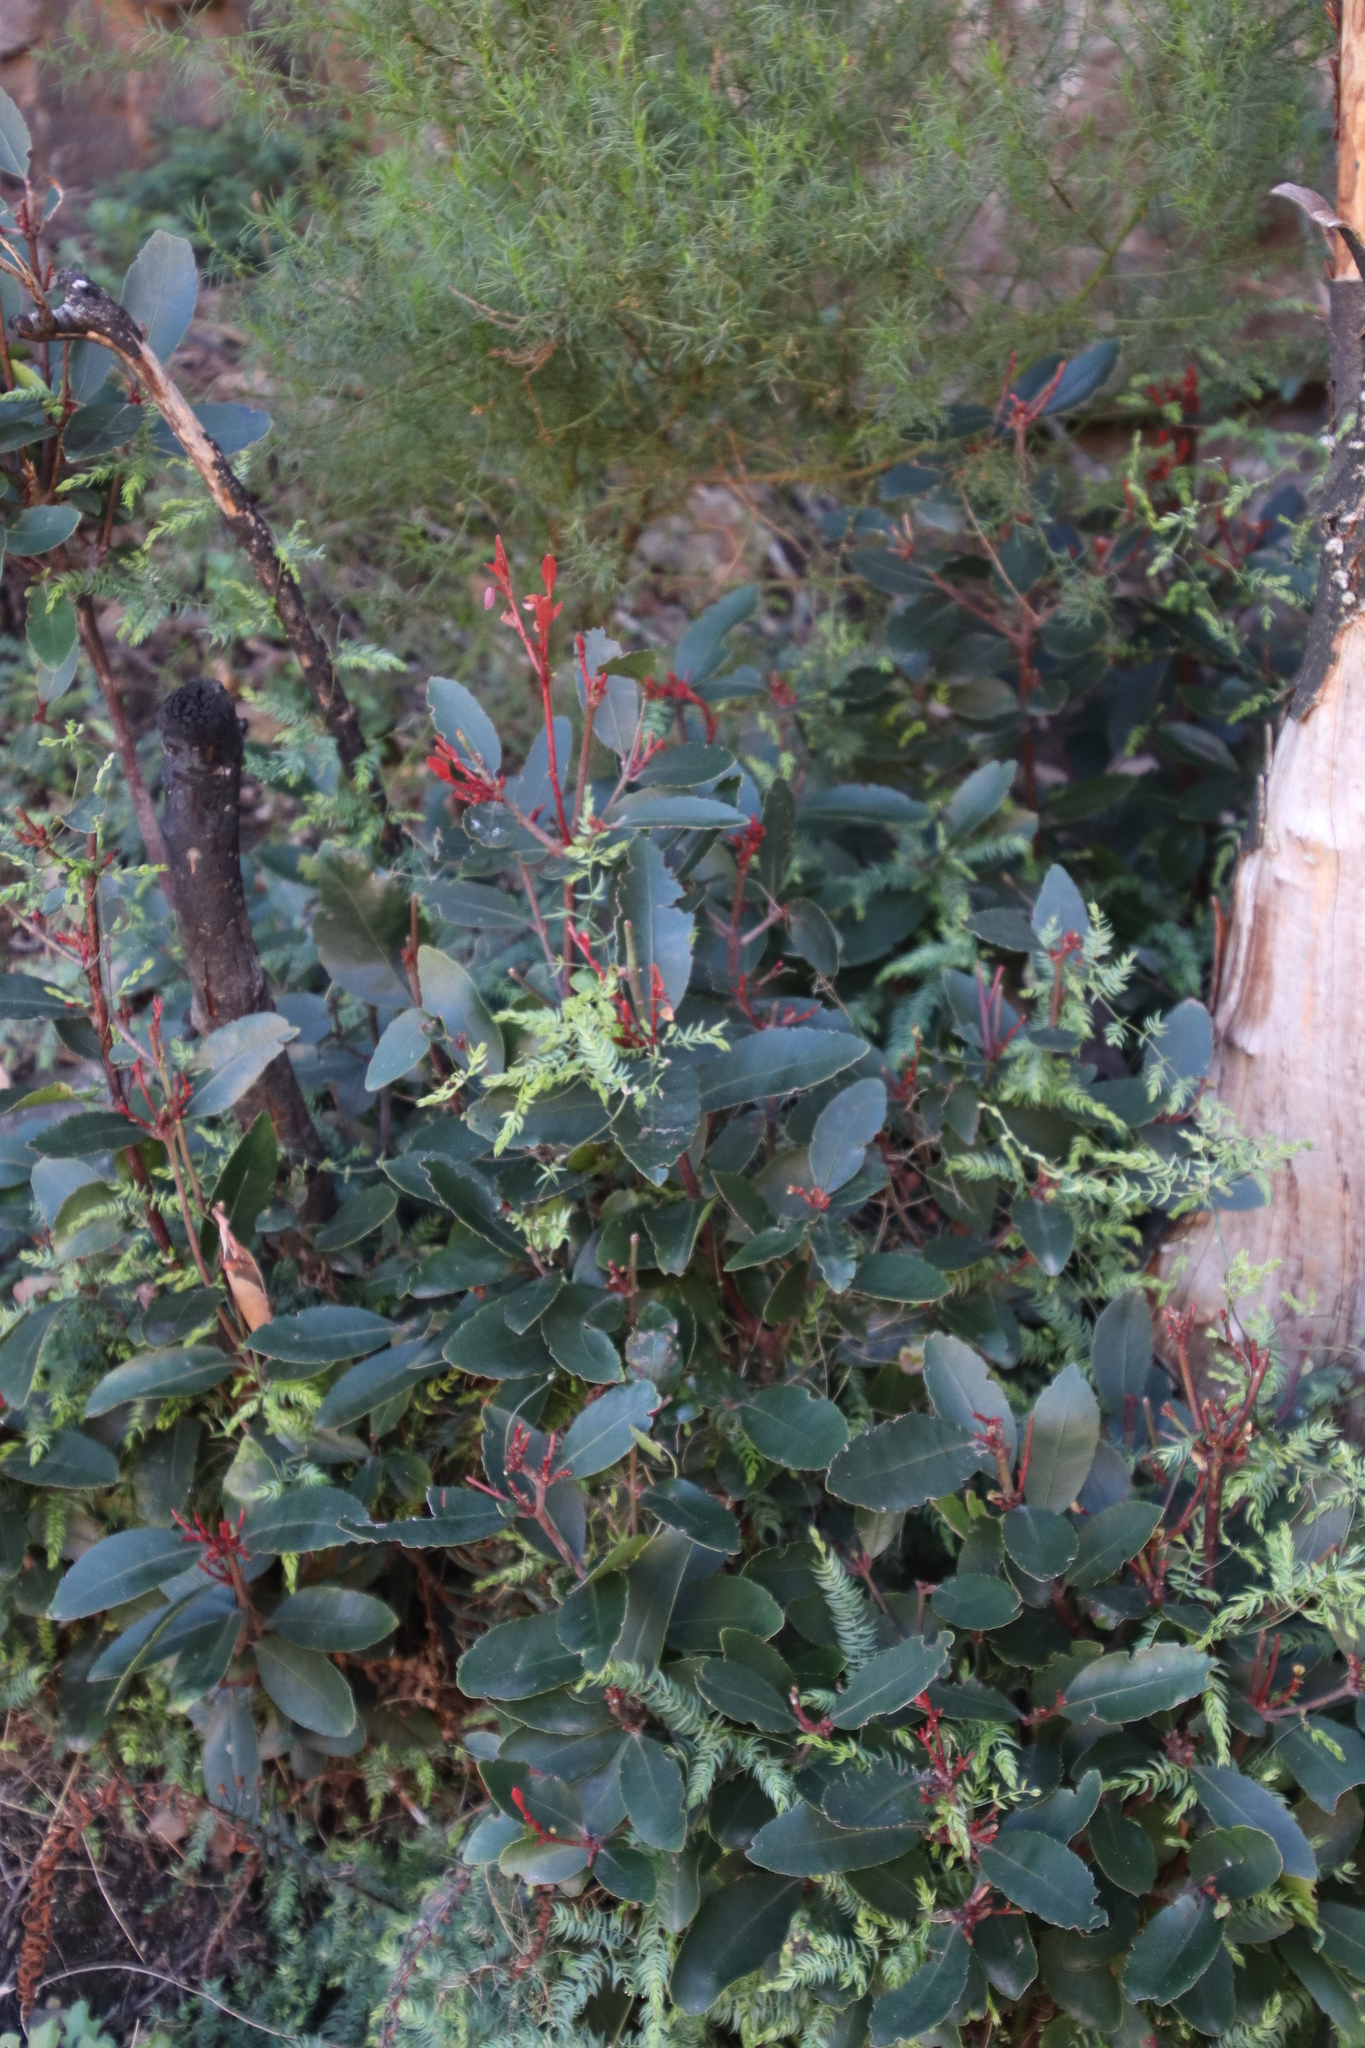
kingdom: Plantae
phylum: Tracheophyta
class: Magnoliopsida
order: Celastrales
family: Celastraceae
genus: Elaeodendron
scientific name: Elaeodendron schinoides
